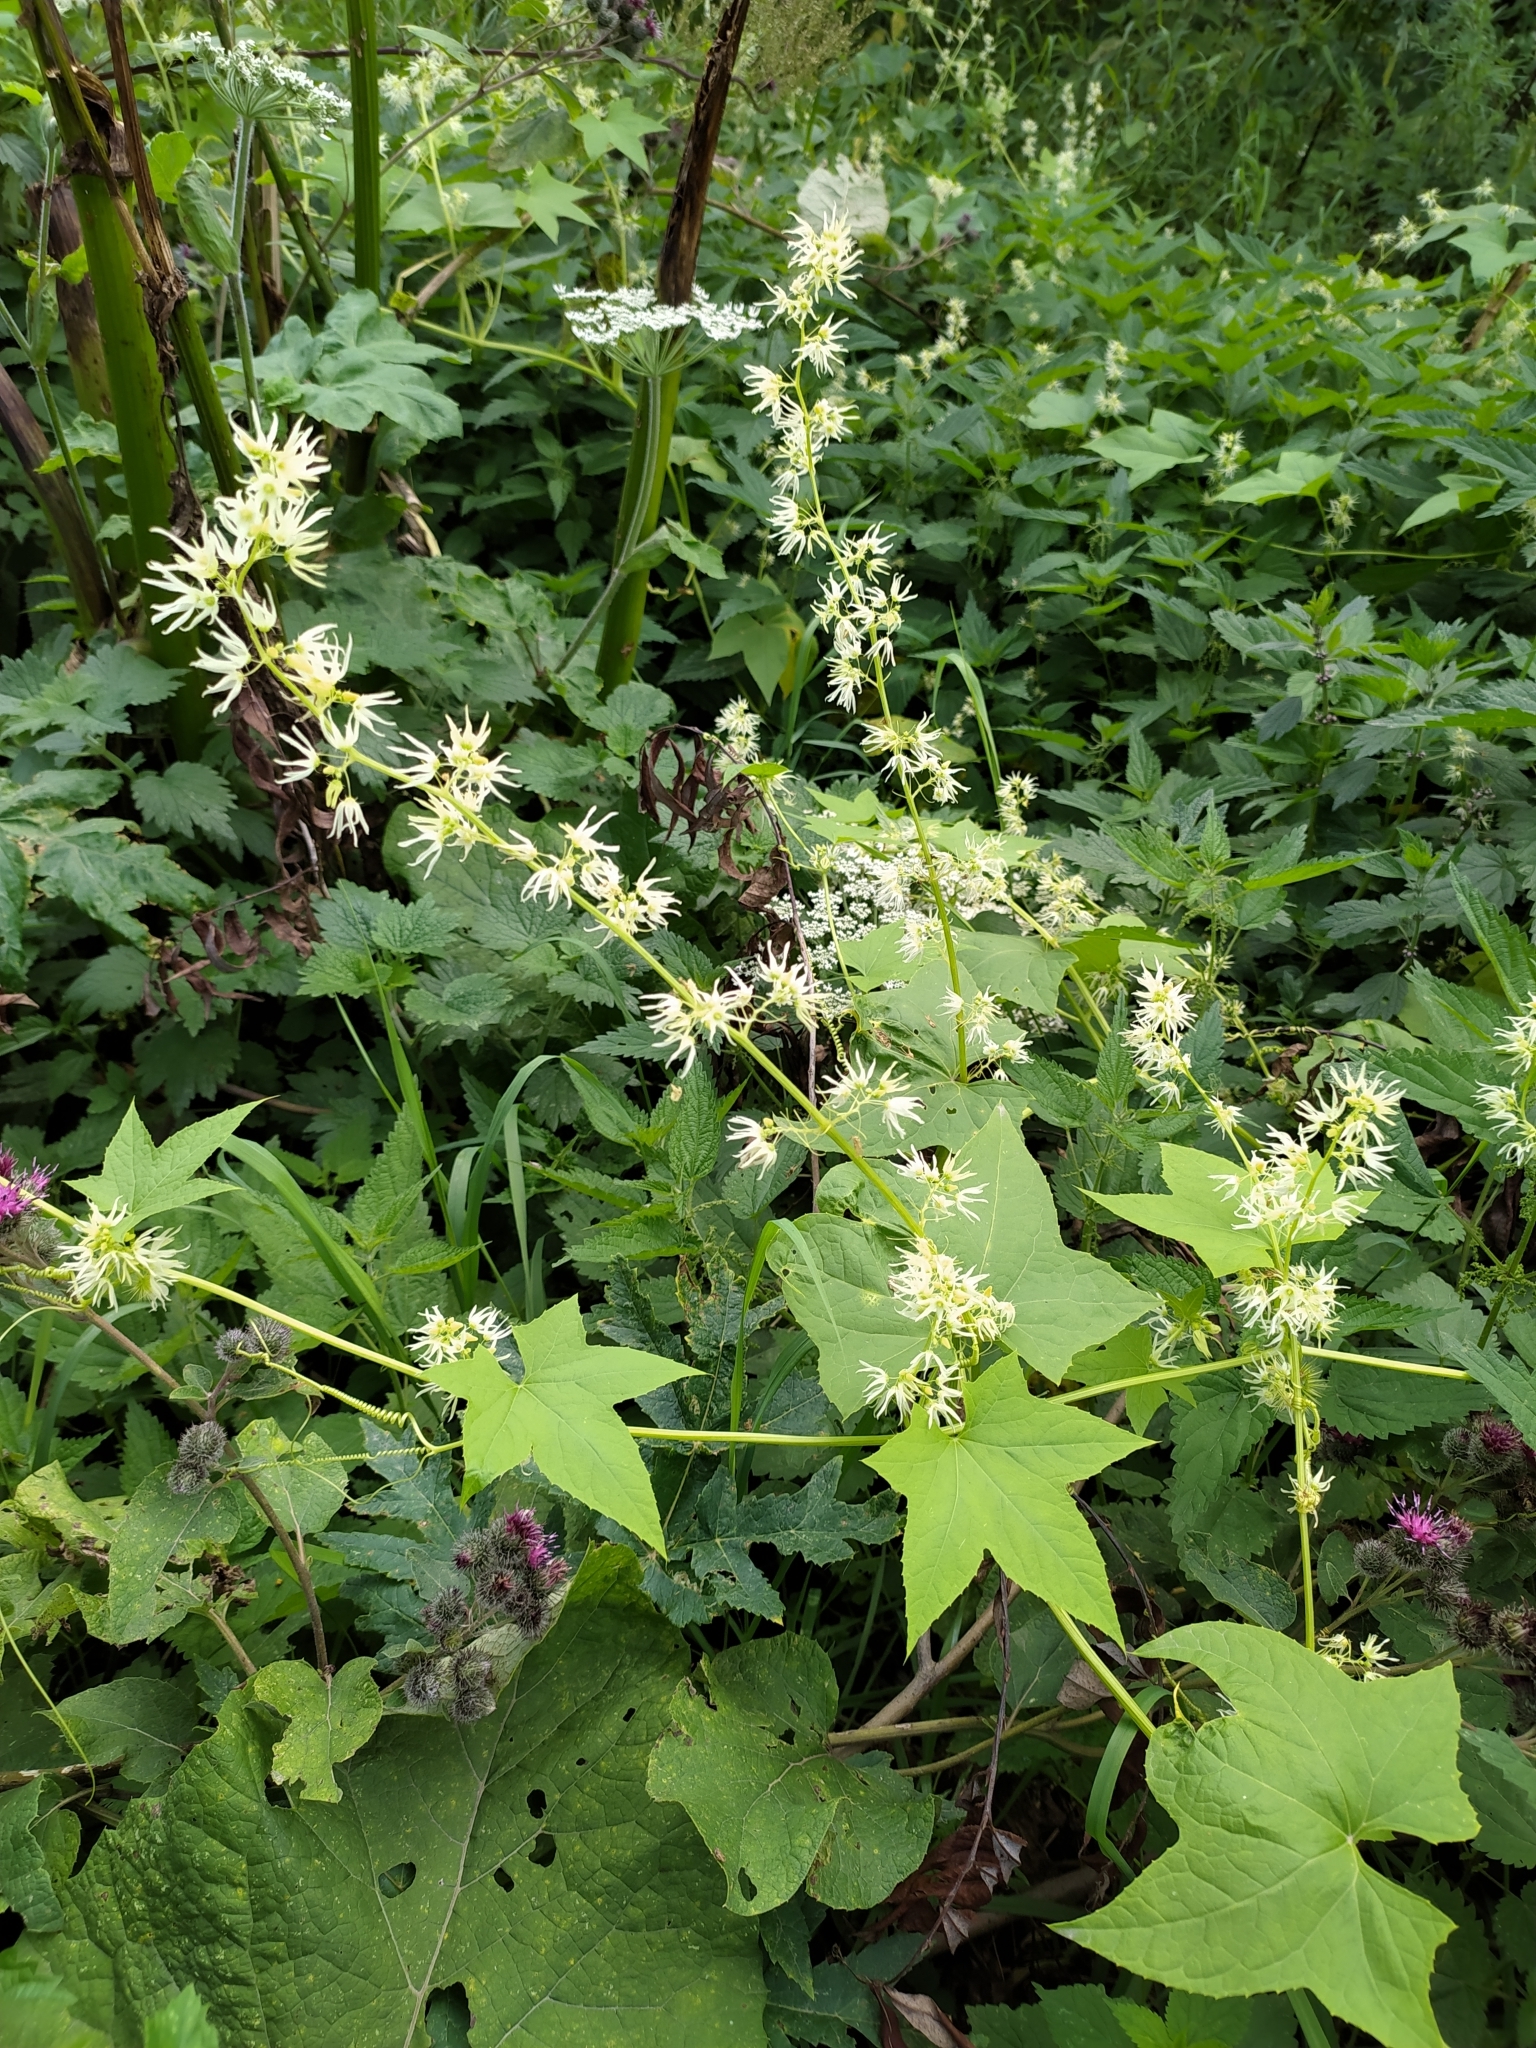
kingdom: Plantae
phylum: Tracheophyta
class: Magnoliopsida
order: Cucurbitales
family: Cucurbitaceae
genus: Echinocystis
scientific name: Echinocystis lobata
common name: Wild cucumber
